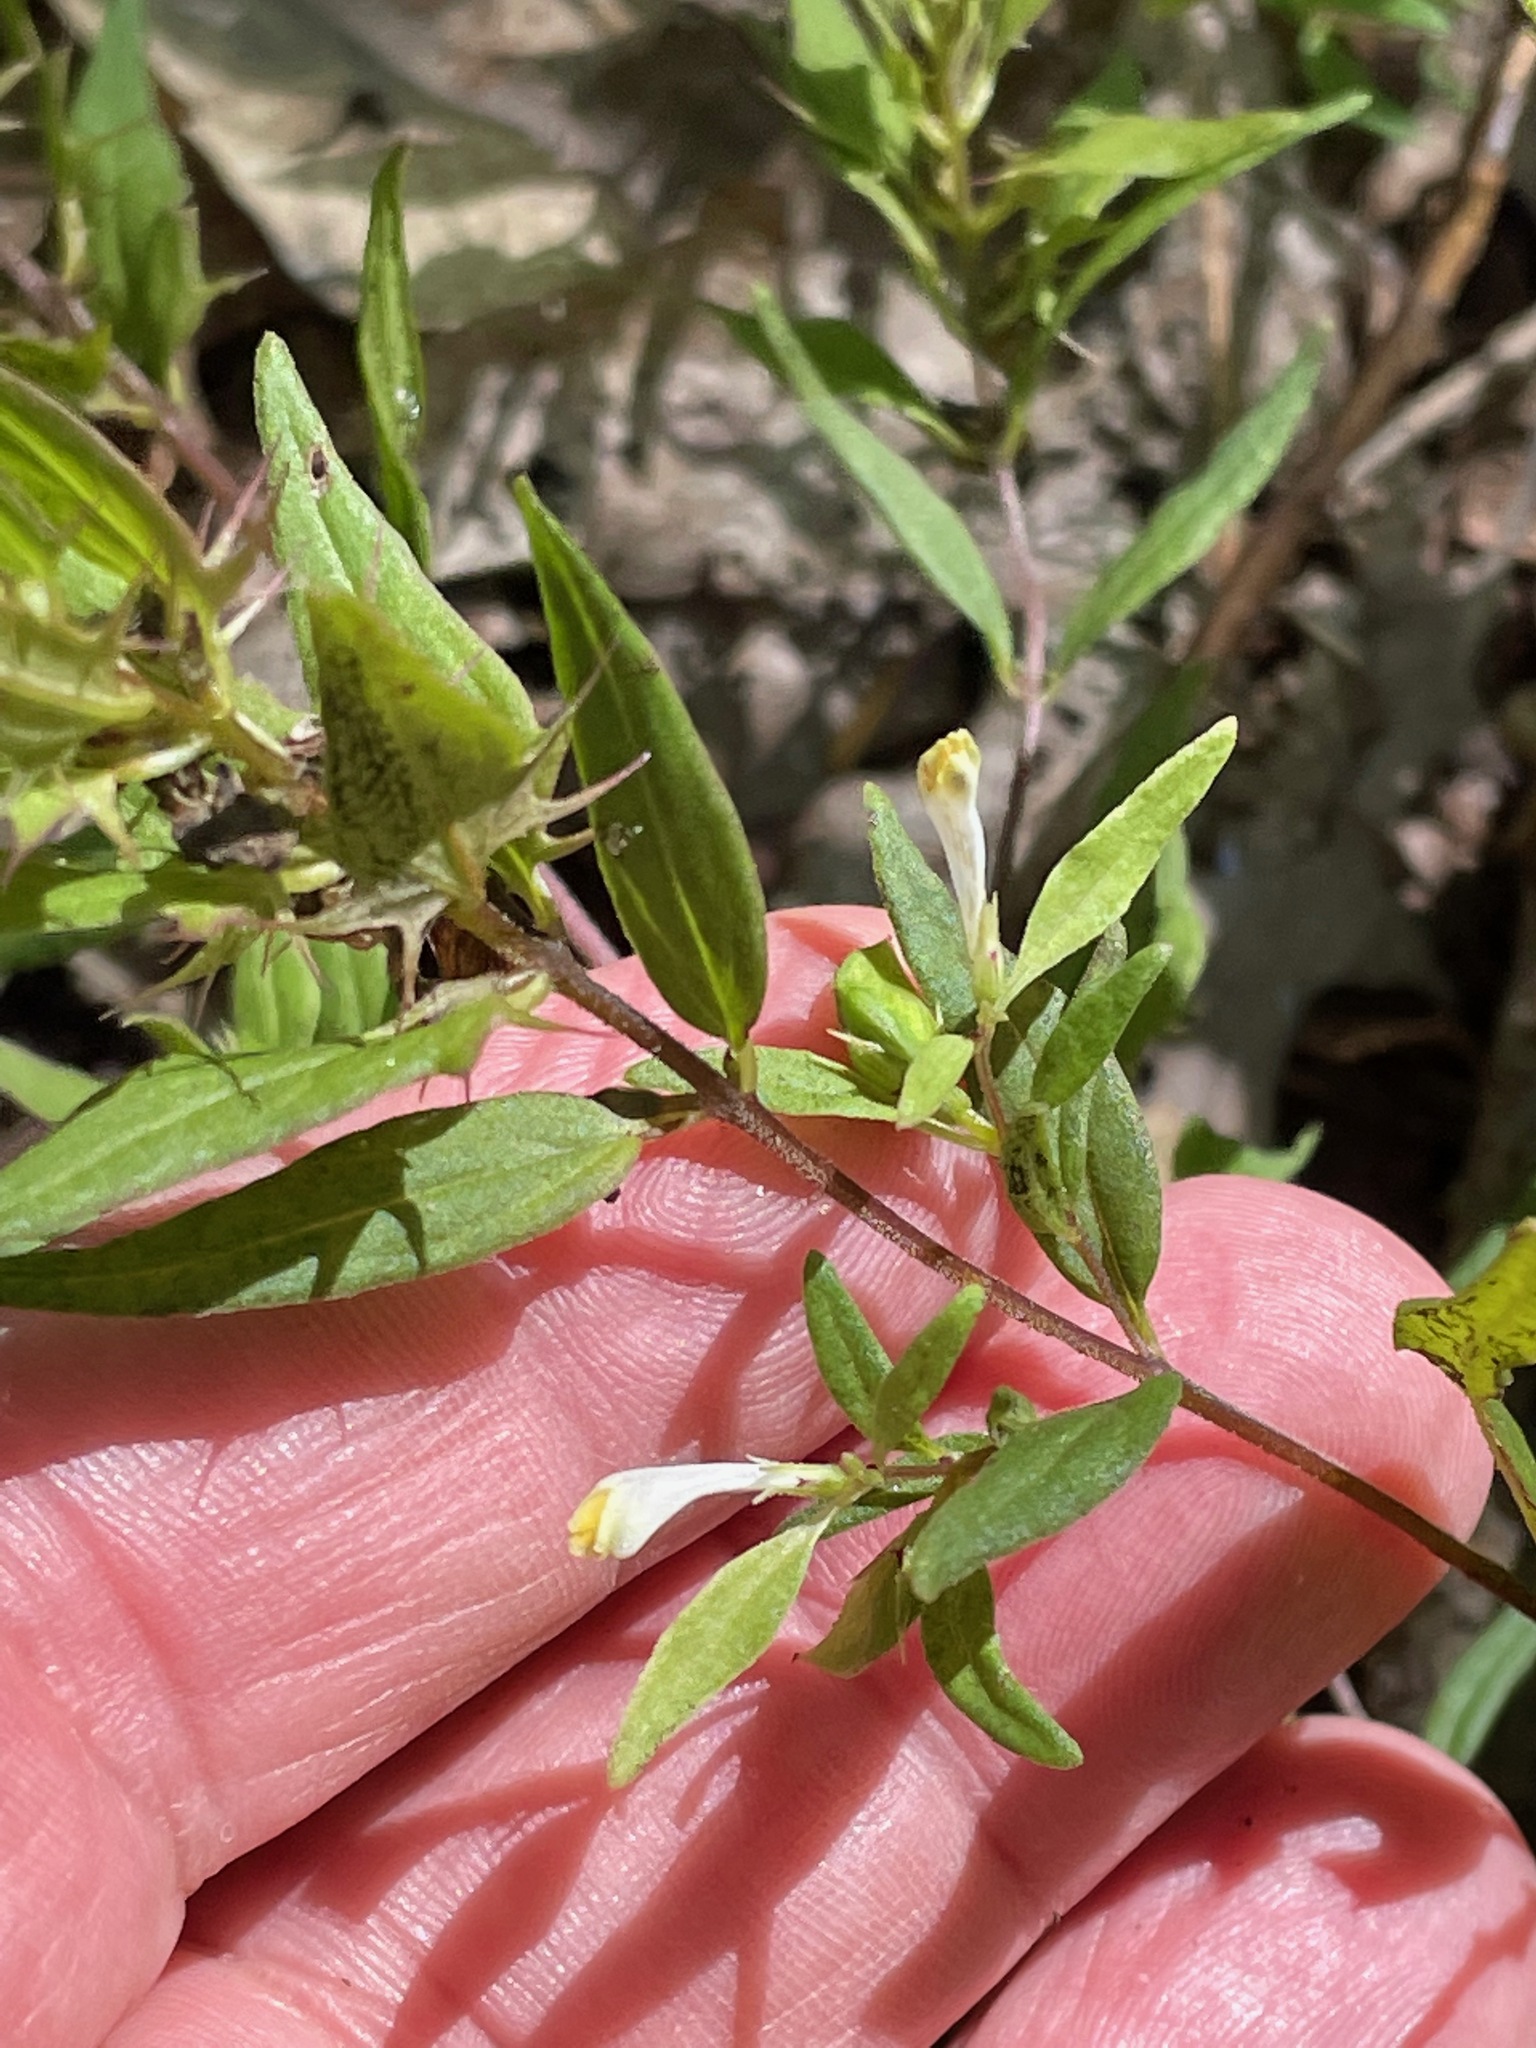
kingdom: Plantae
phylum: Tracheophyta
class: Magnoliopsida
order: Lamiales
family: Orobanchaceae
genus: Melampyrum
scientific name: Melampyrum lineare
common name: American cow-wheat
